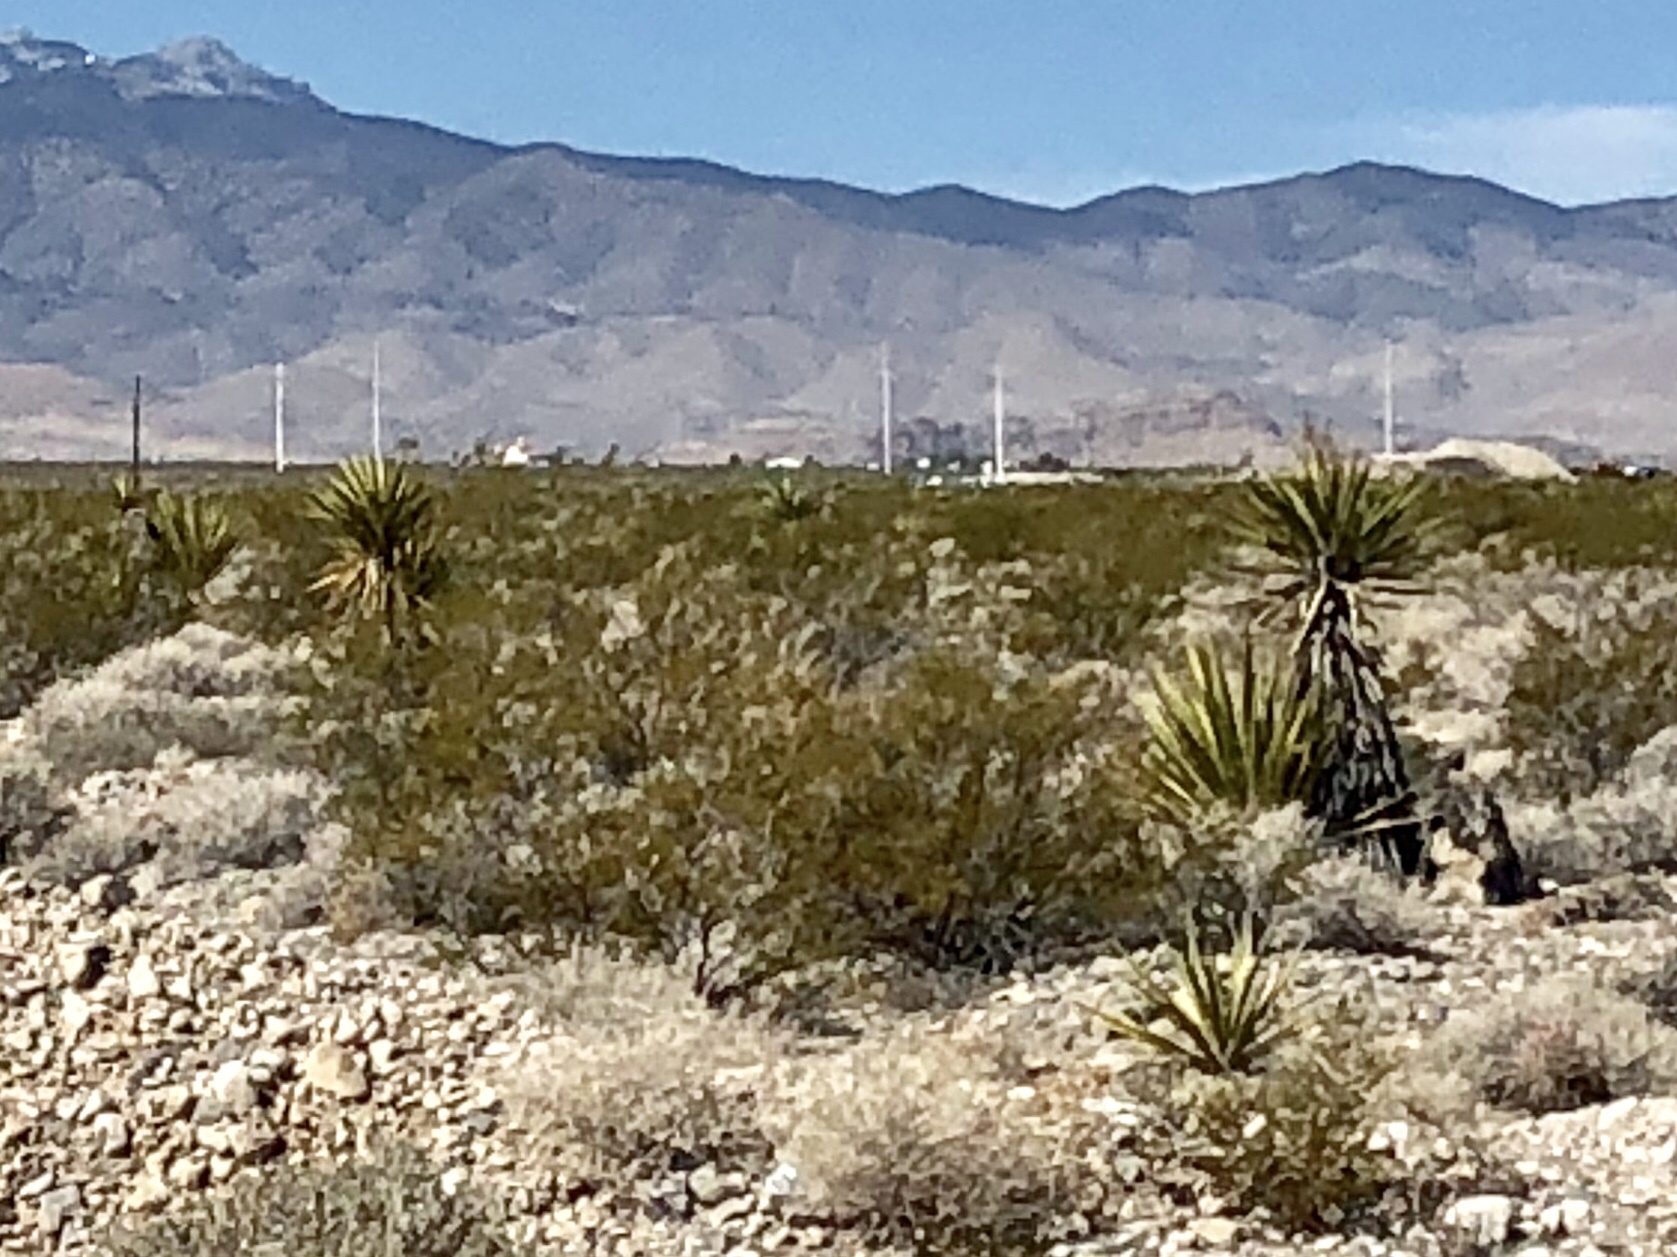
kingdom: Plantae
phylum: Tracheophyta
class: Magnoliopsida
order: Zygophyllales
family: Zygophyllaceae
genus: Larrea
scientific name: Larrea tridentata
